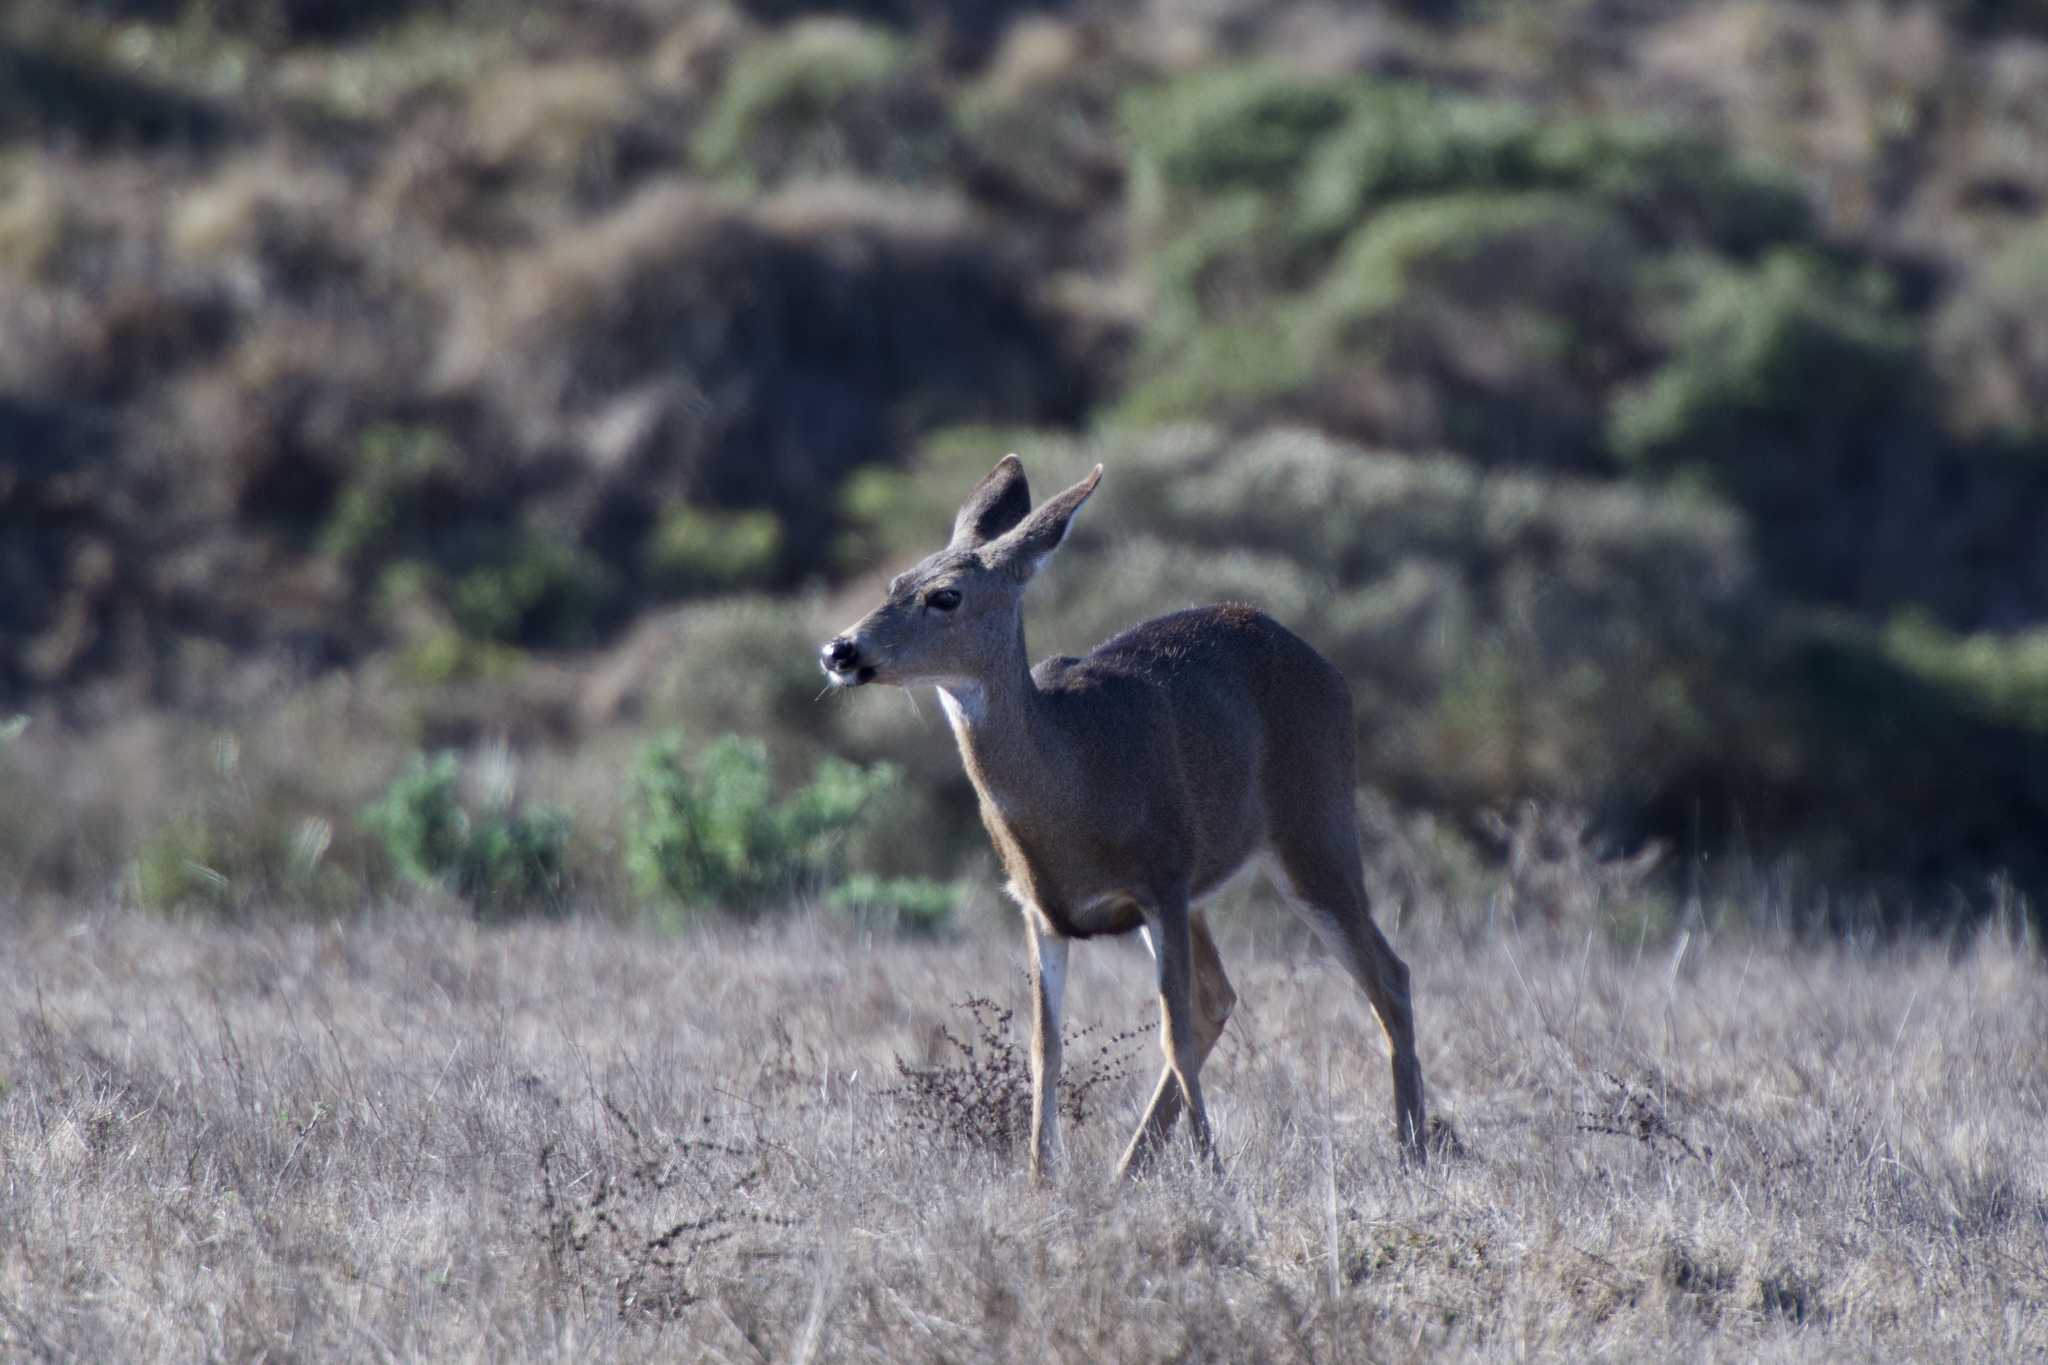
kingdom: Animalia
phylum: Chordata
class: Mammalia
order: Artiodactyla
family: Cervidae
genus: Odocoileus
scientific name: Odocoileus hemionus
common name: Mule deer
